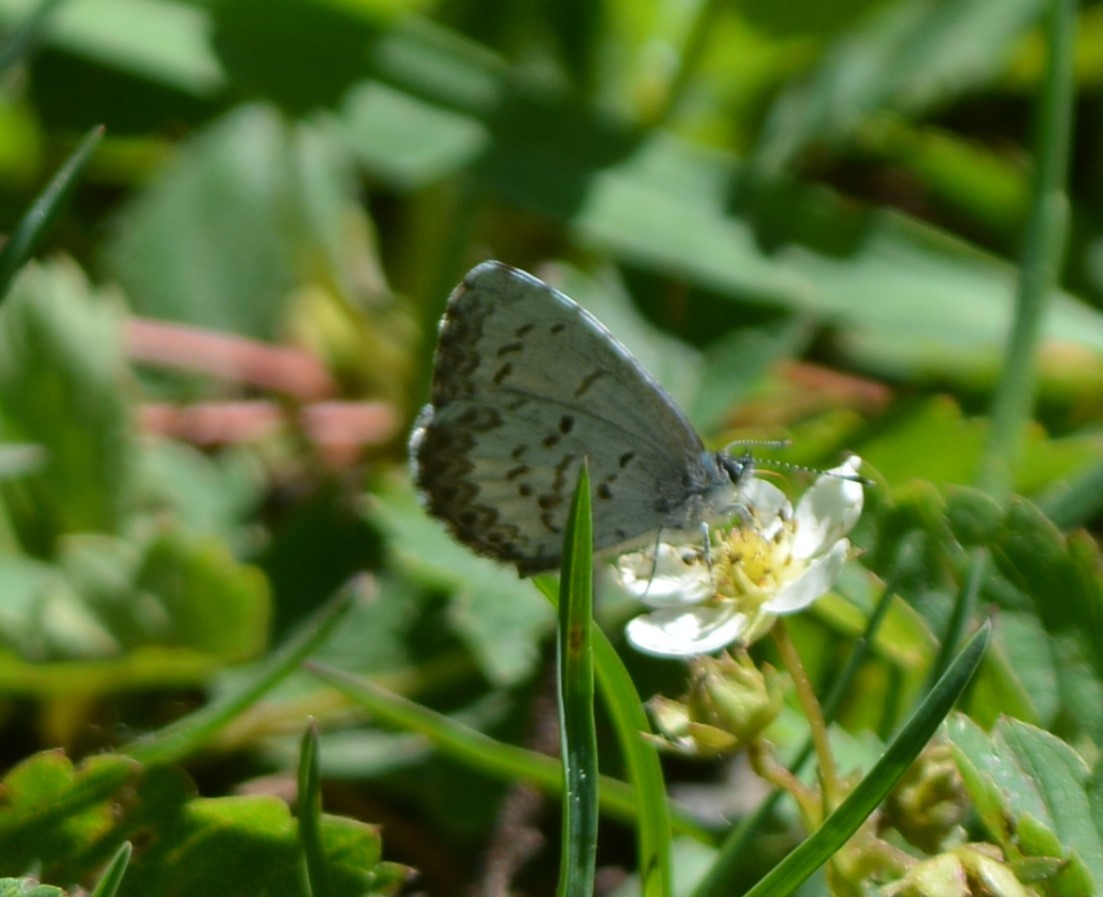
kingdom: Animalia
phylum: Arthropoda
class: Insecta
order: Lepidoptera
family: Lycaenidae
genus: Celastrina
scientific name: Celastrina lucia
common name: Lucia azure
